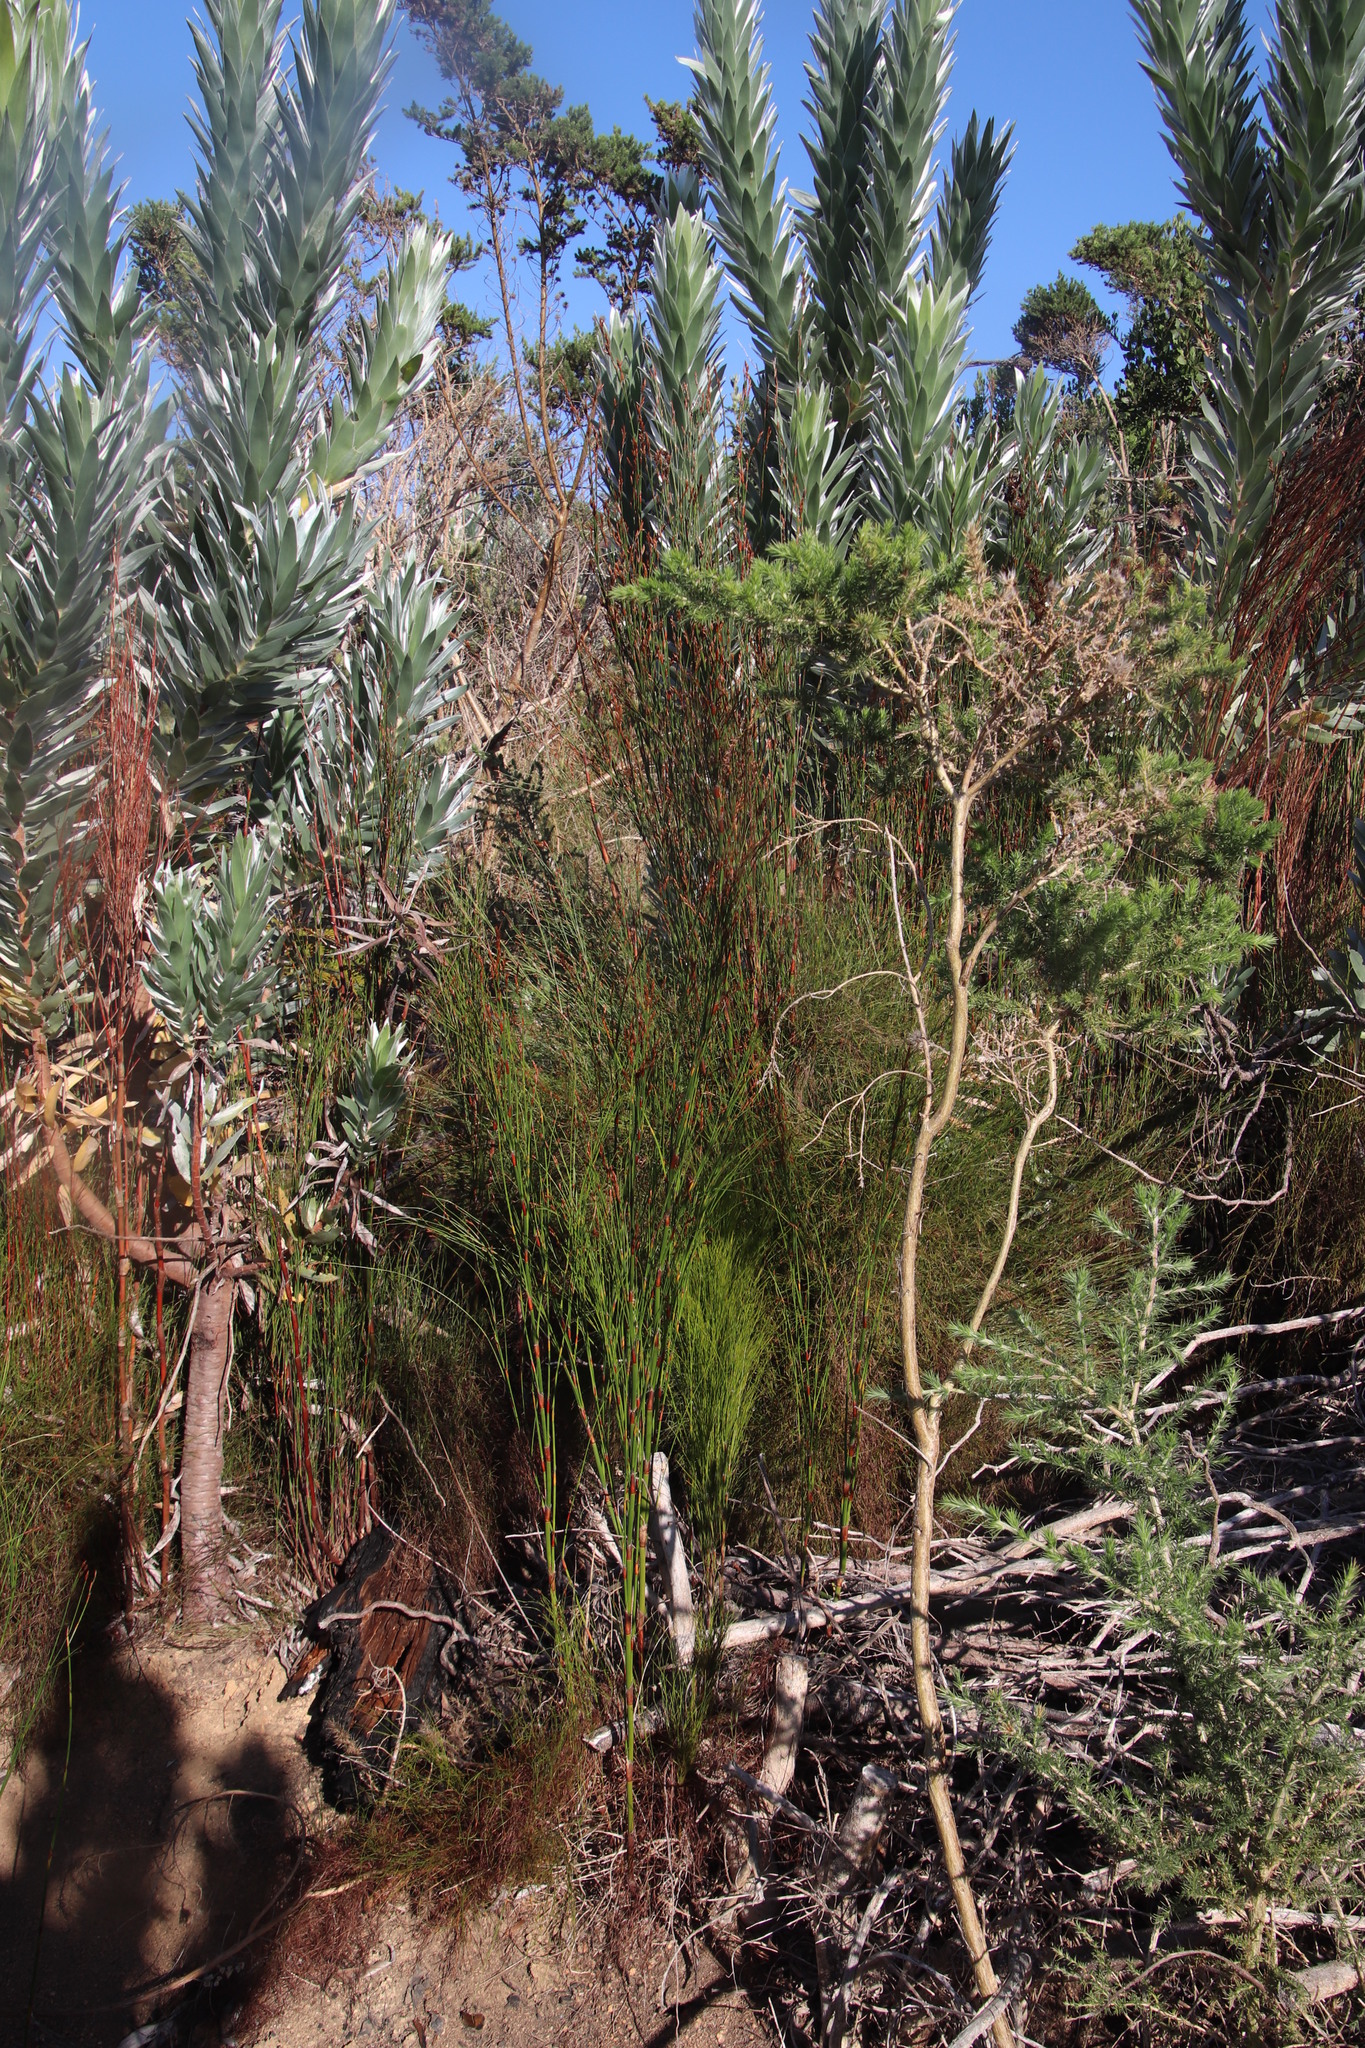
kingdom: Plantae
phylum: Tracheophyta
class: Liliopsida
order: Poales
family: Restionaceae
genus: Restio
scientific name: Restio multiflorus
